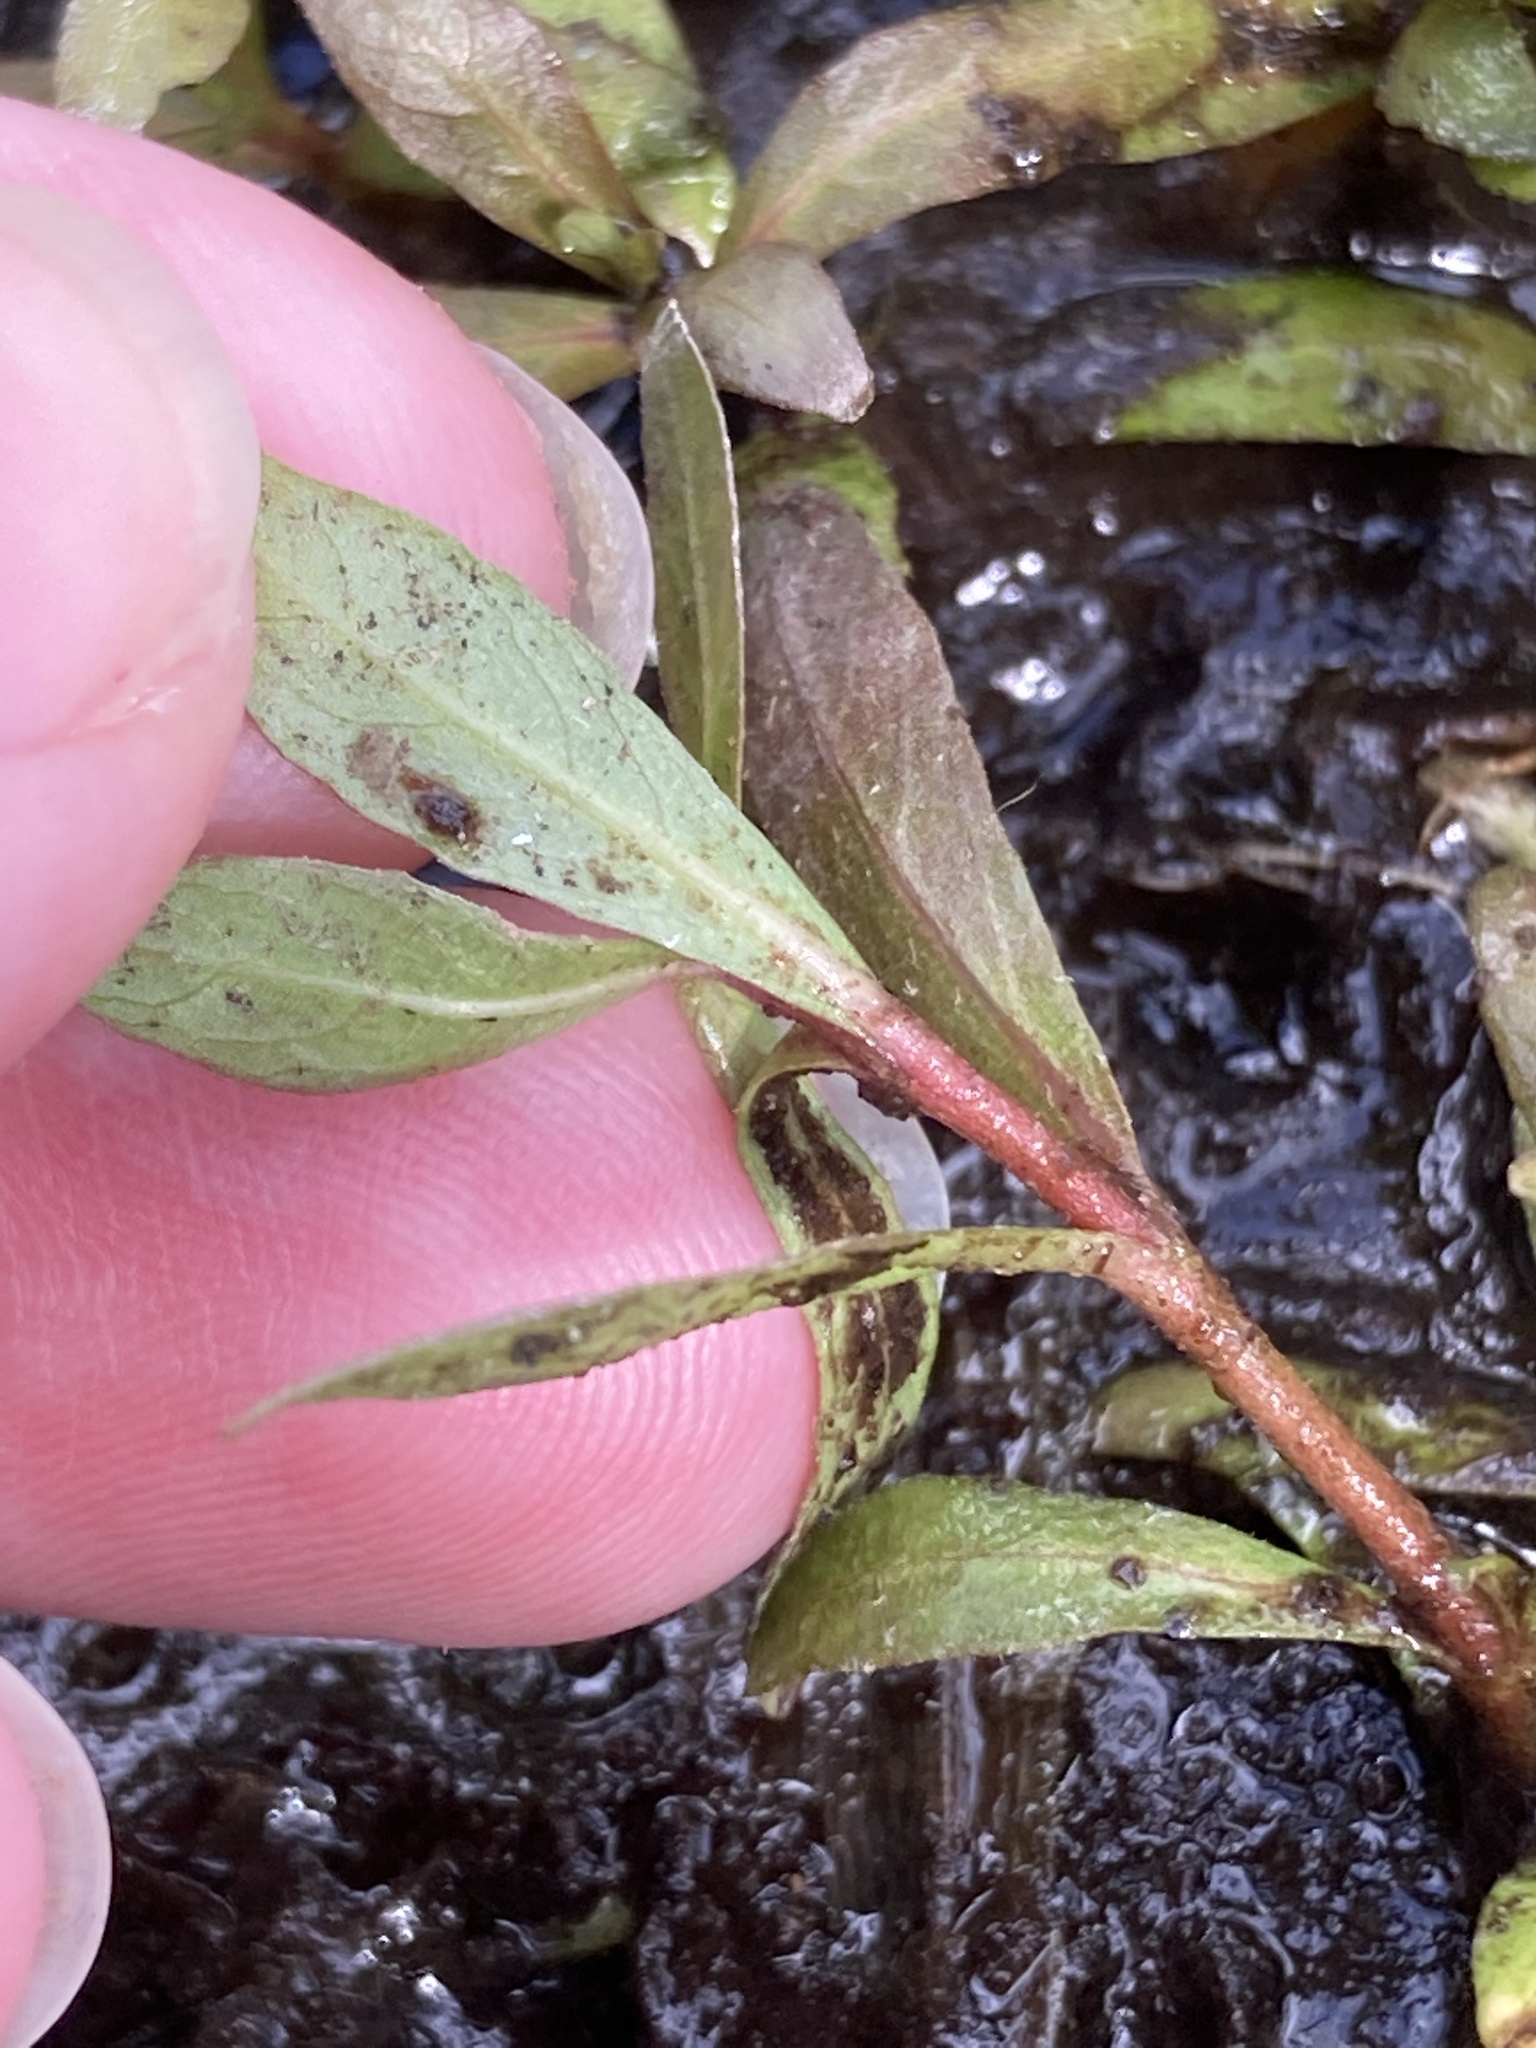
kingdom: Plantae
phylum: Tracheophyta
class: Magnoliopsida
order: Lamiales
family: Acanthaceae
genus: Hygrophila
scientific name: Hygrophila polysperma
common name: Indian swampweed
